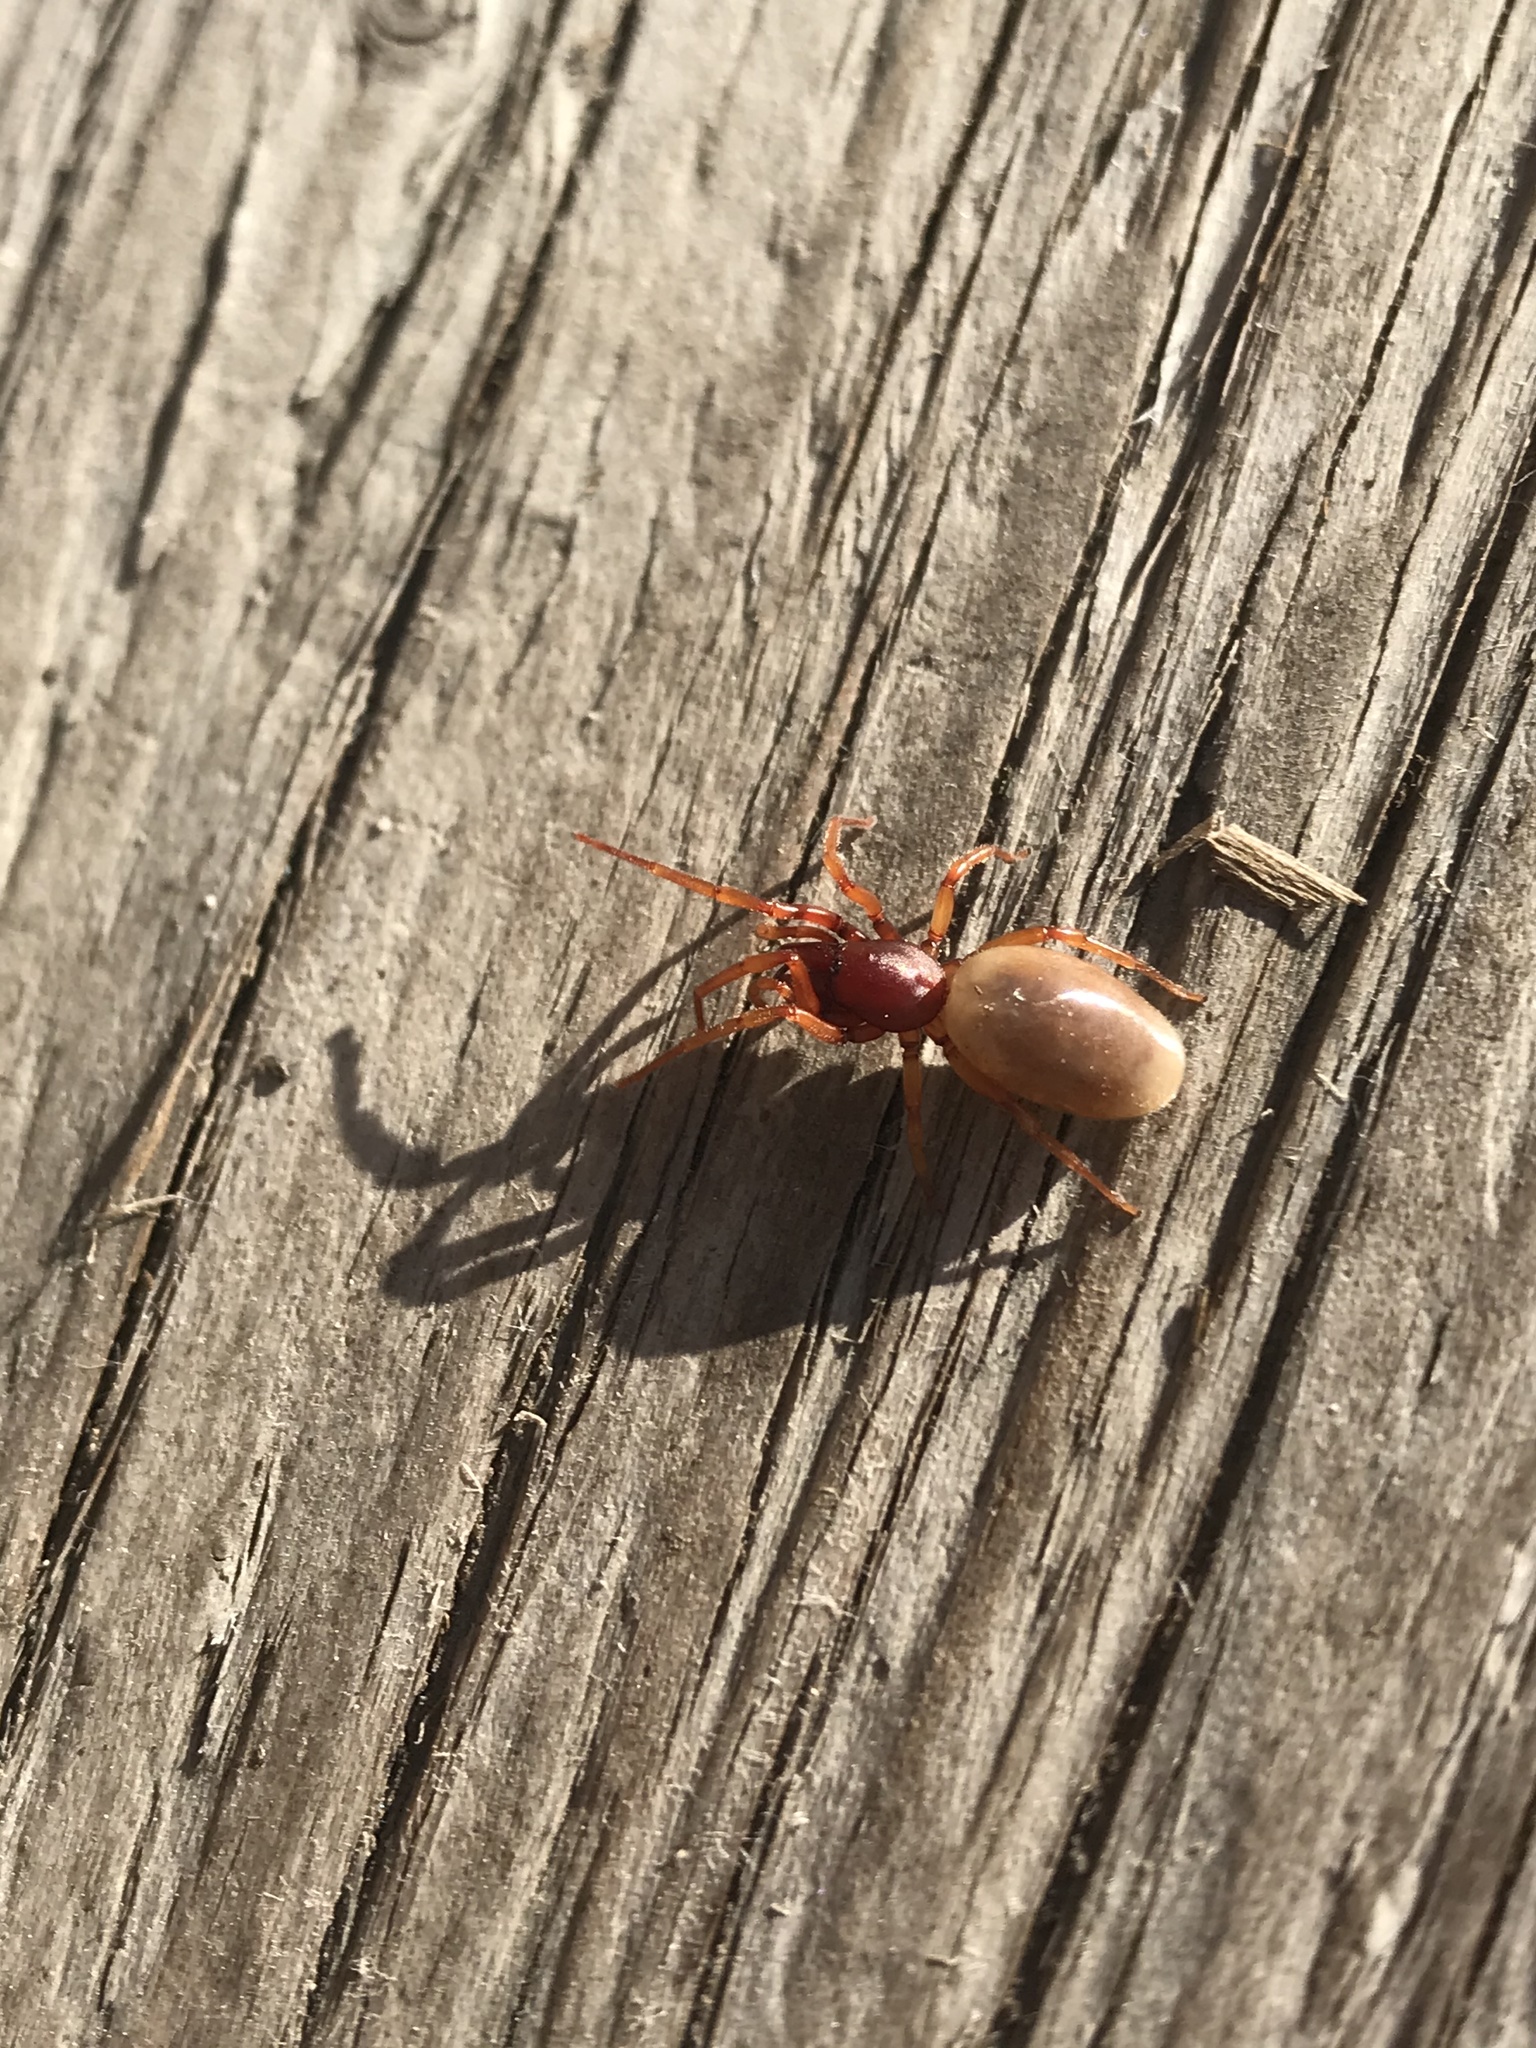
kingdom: Animalia
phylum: Arthropoda
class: Arachnida
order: Araneae
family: Dysderidae
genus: Dysdera
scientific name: Dysdera crocata
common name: Woodlouse spider
